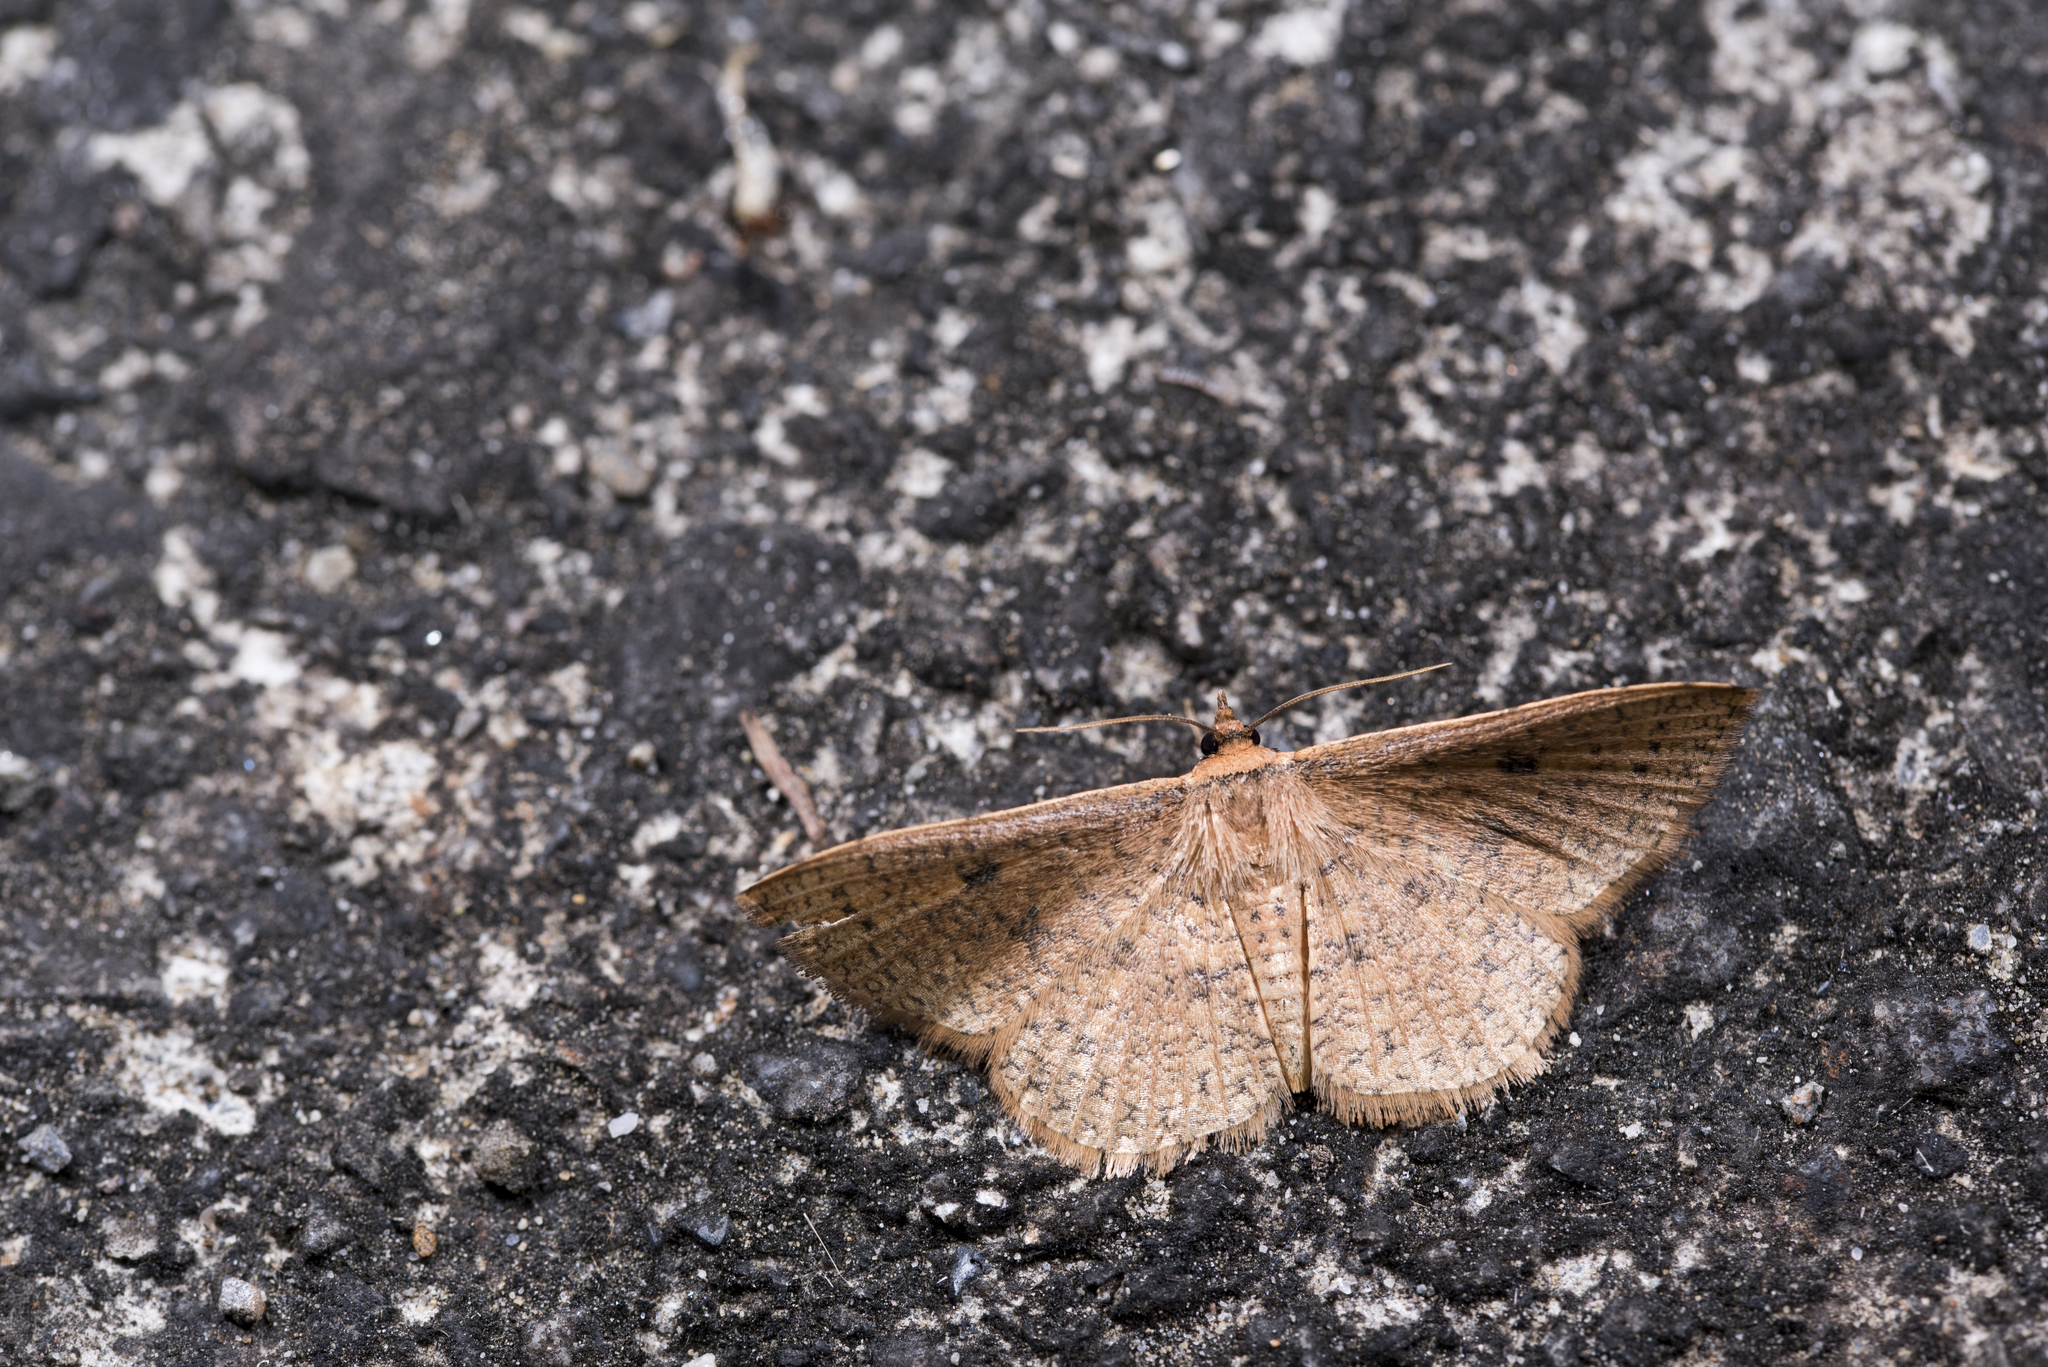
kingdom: Animalia
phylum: Arthropoda
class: Insecta
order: Lepidoptera
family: Thyrididae
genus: Herimba
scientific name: Herimba formosa
